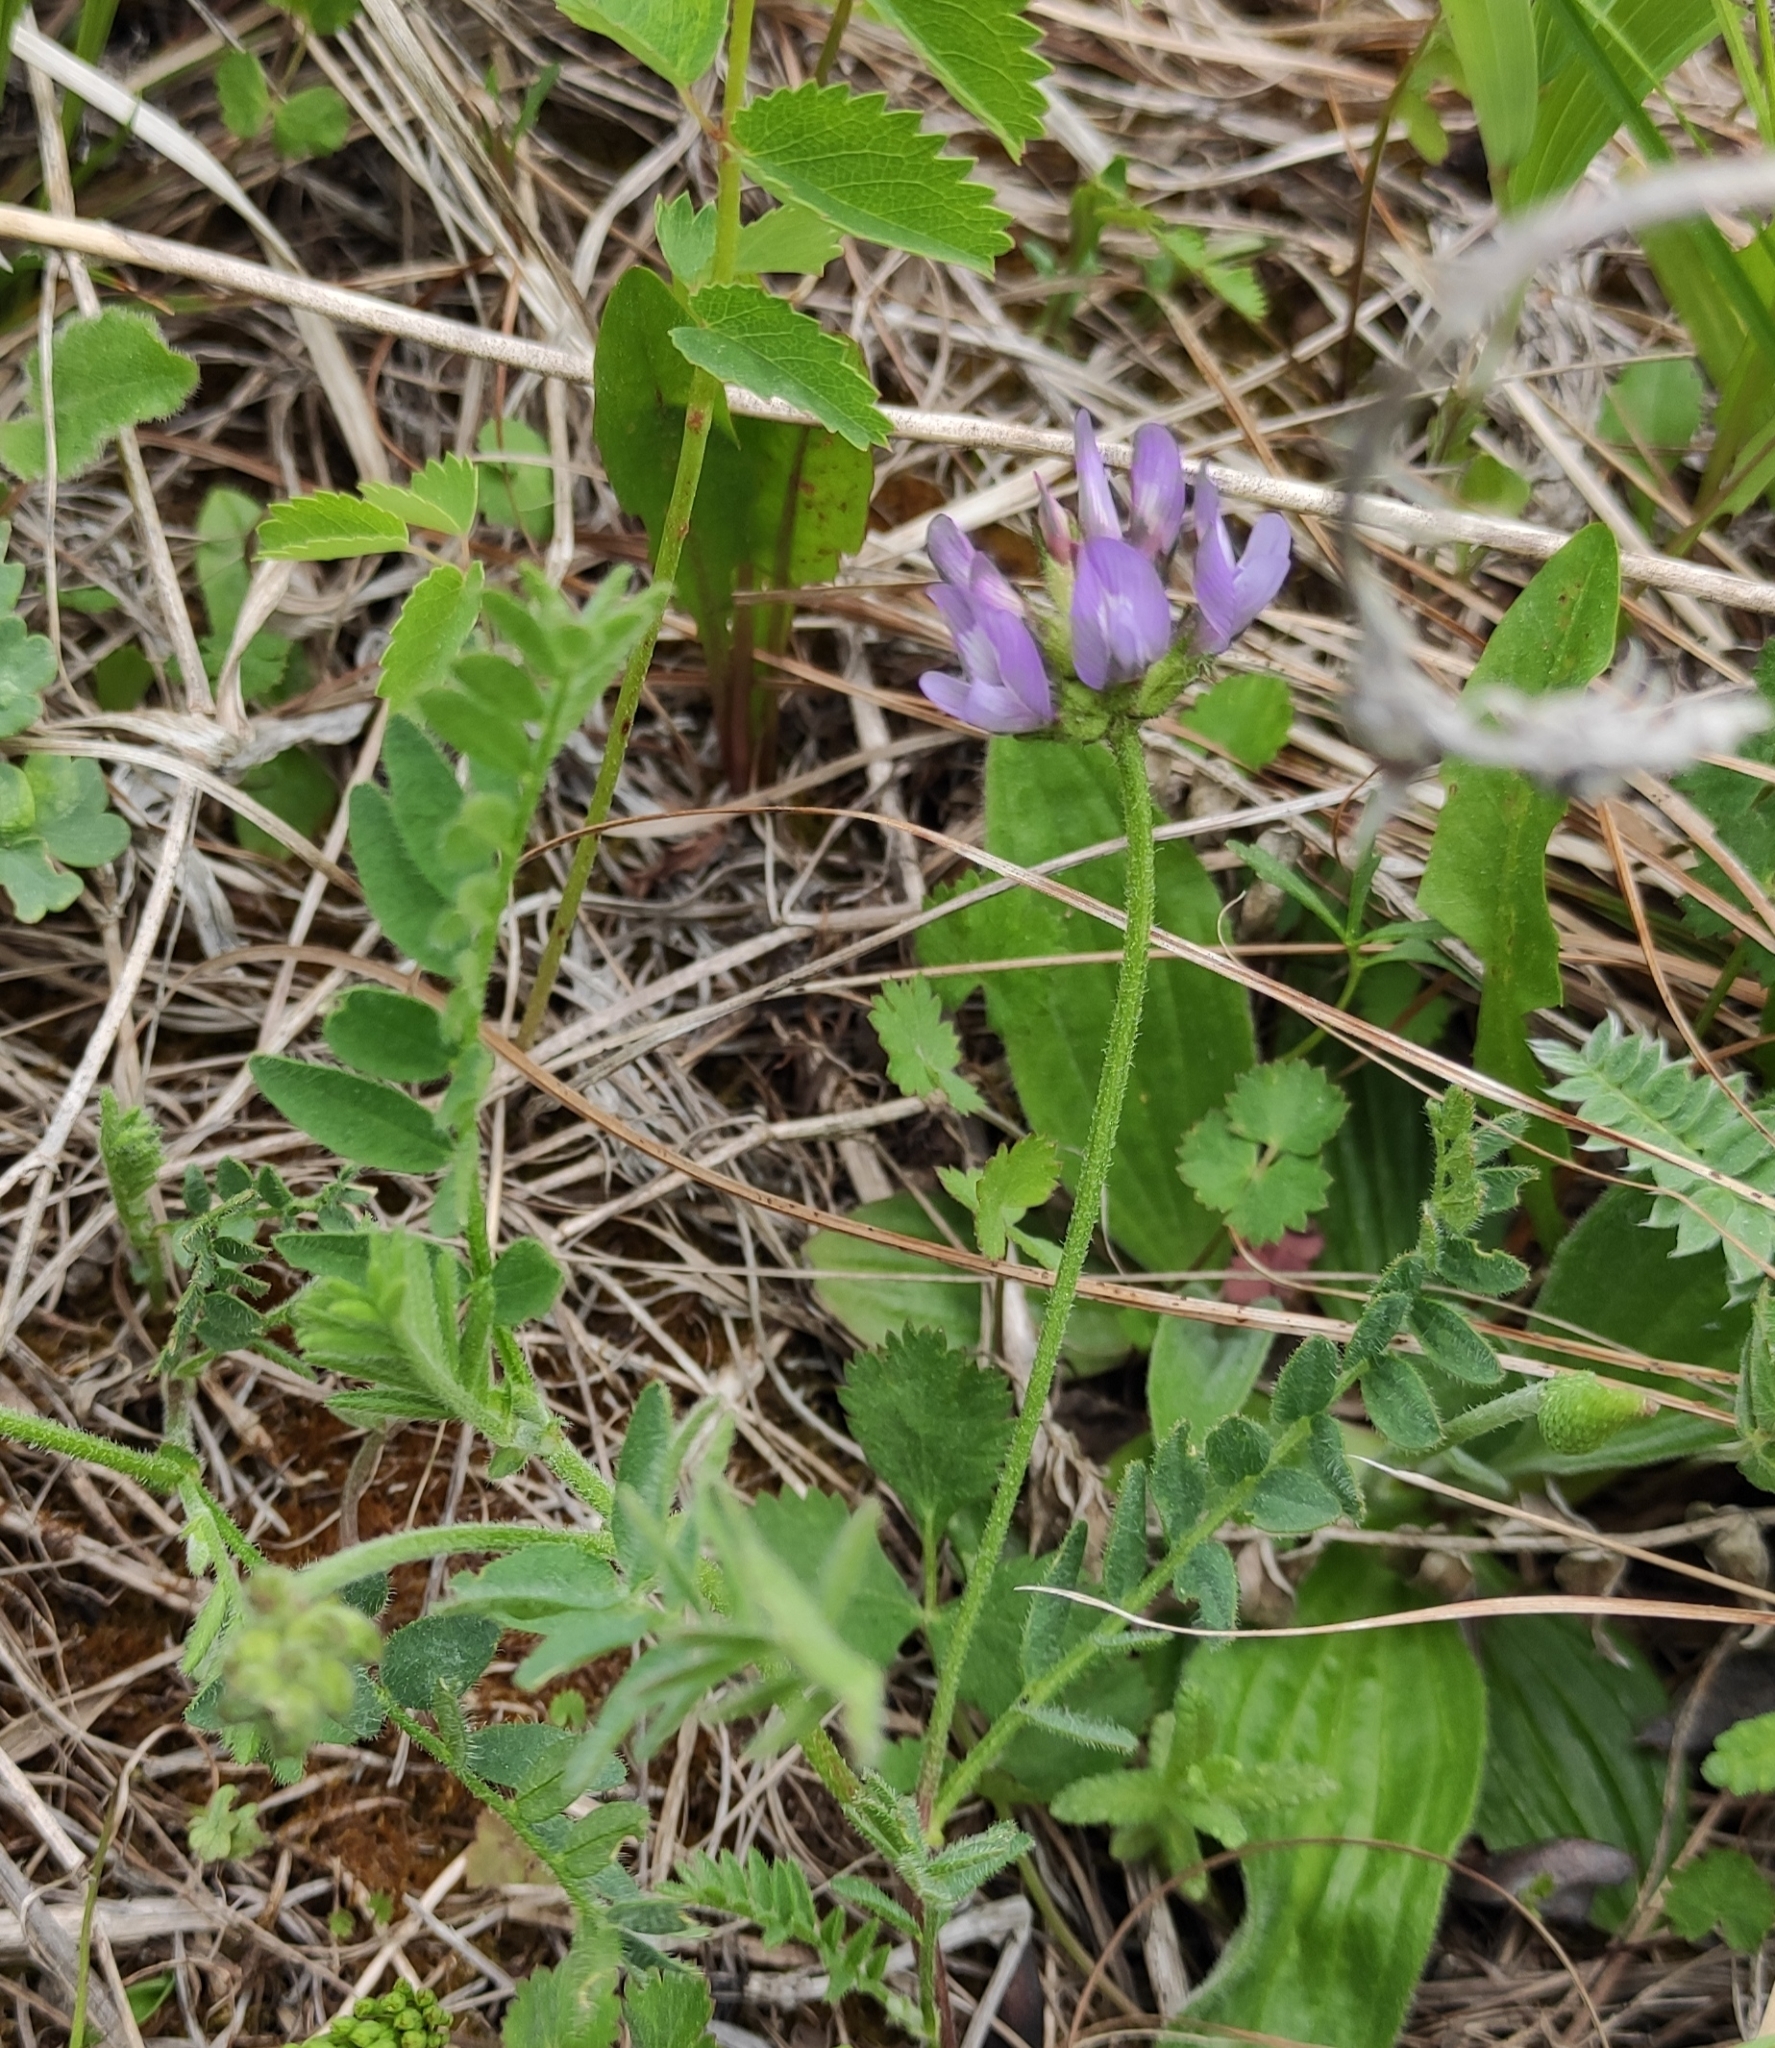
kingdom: Plantae
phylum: Tracheophyta
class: Magnoliopsida
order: Fabales
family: Fabaceae
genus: Astragalus
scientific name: Astragalus danicus
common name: Purple milk-vetch
